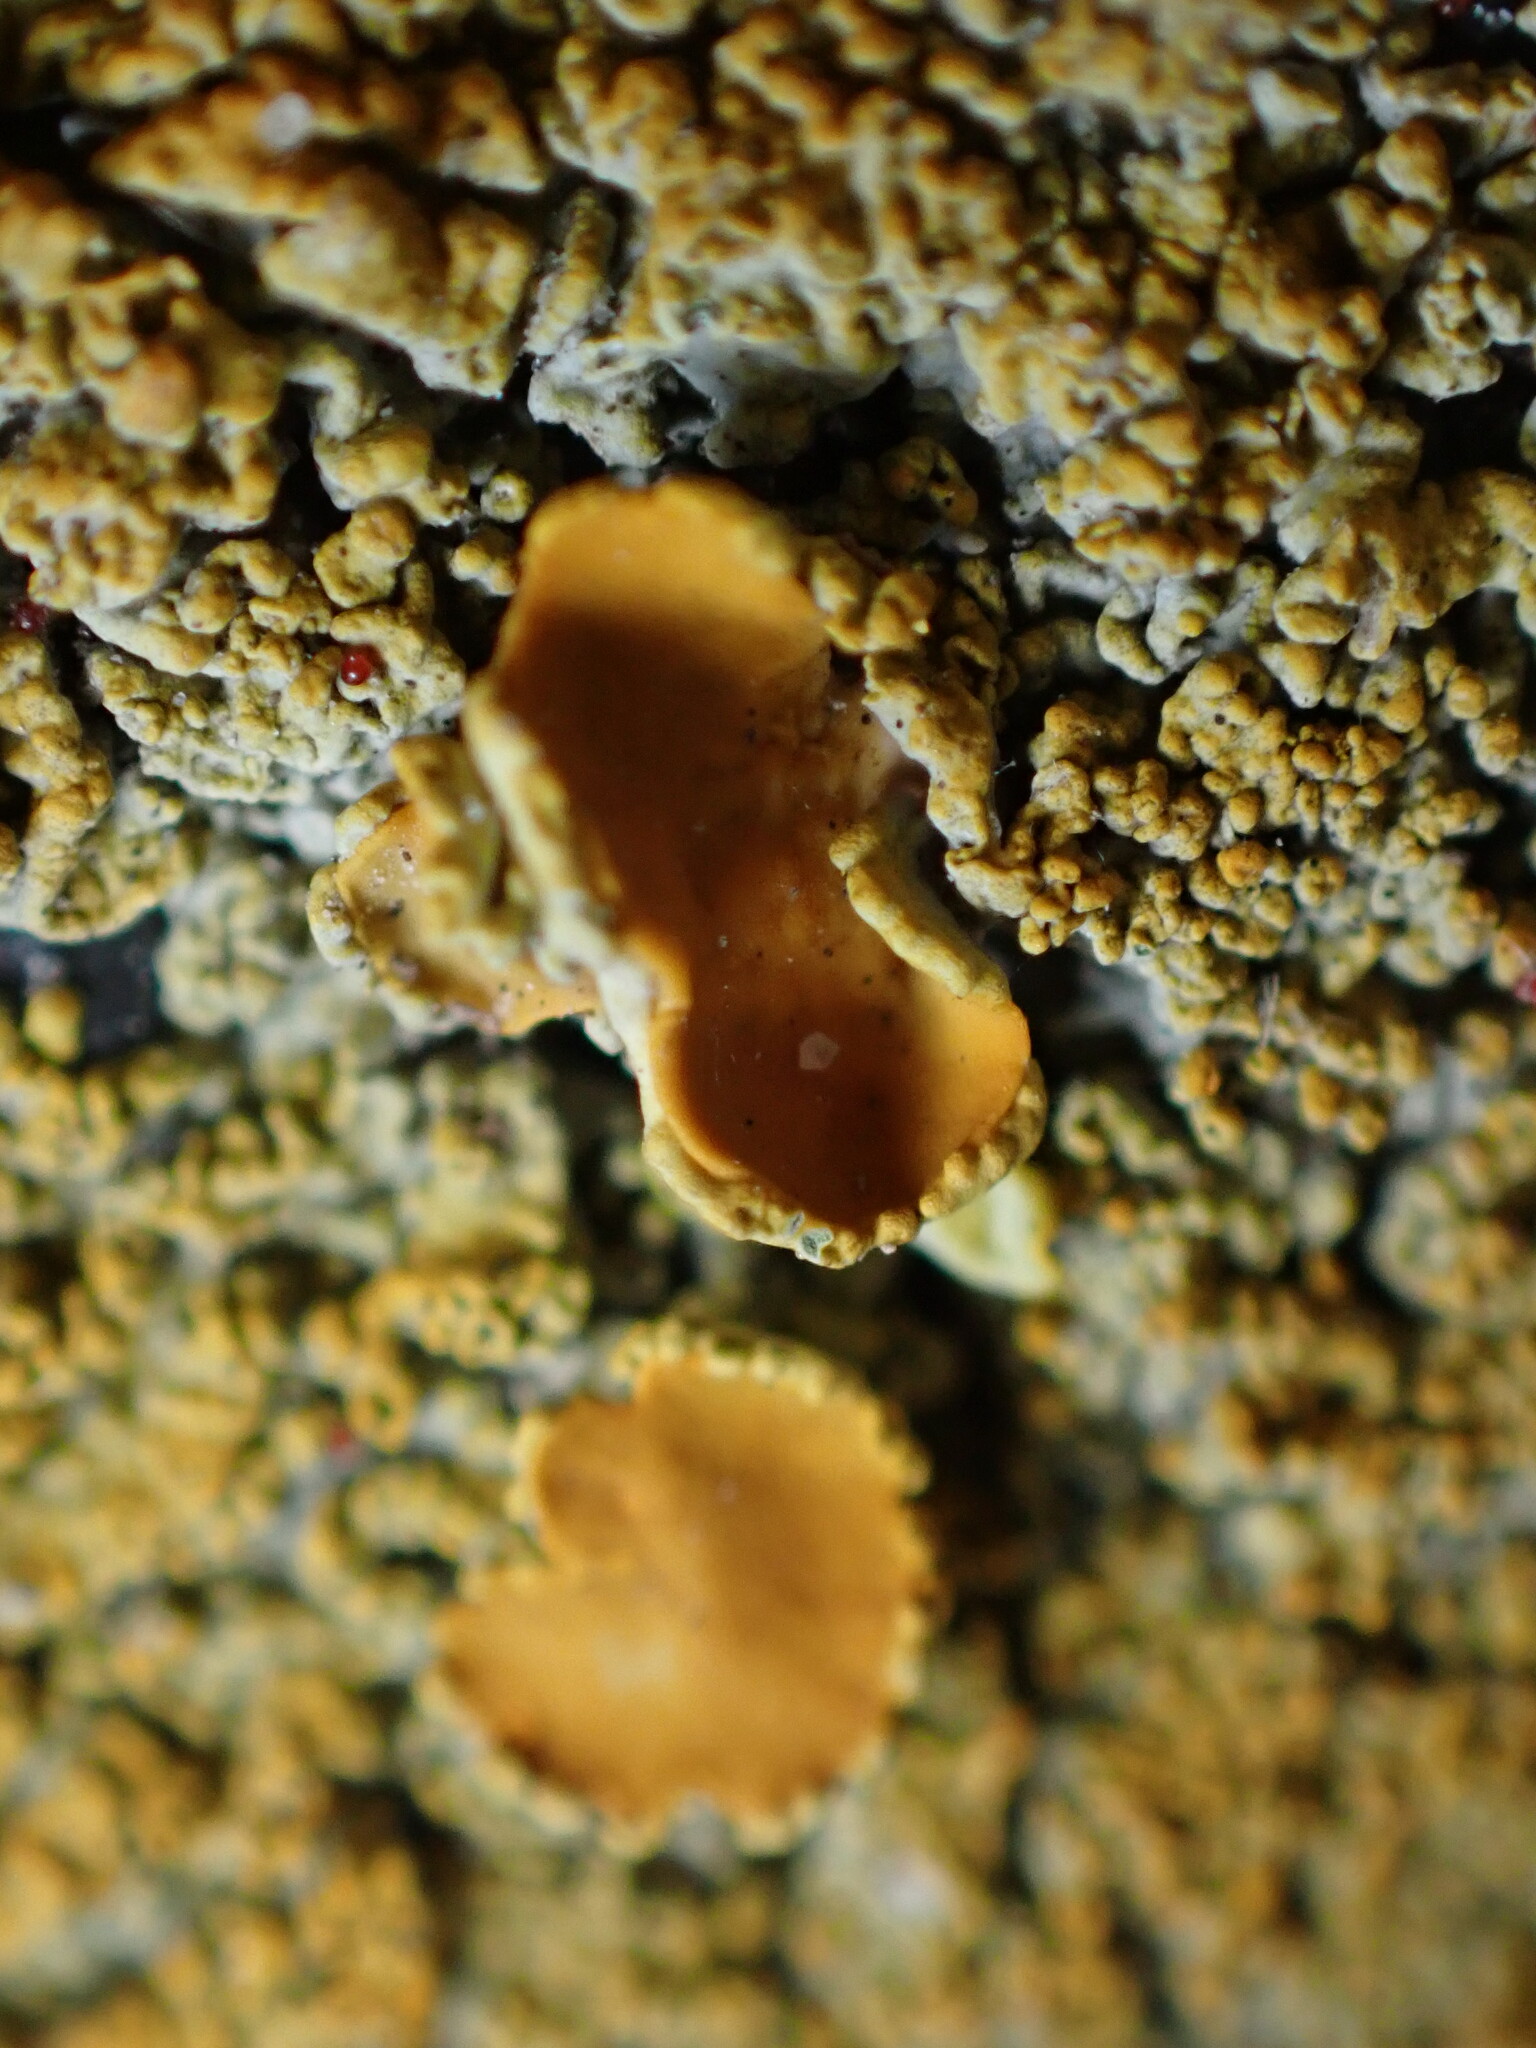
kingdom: Fungi
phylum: Ascomycota
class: Lecanoromycetes
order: Teloschistales
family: Teloschistaceae
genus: Xanthoria
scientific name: Xanthoria calcicola
